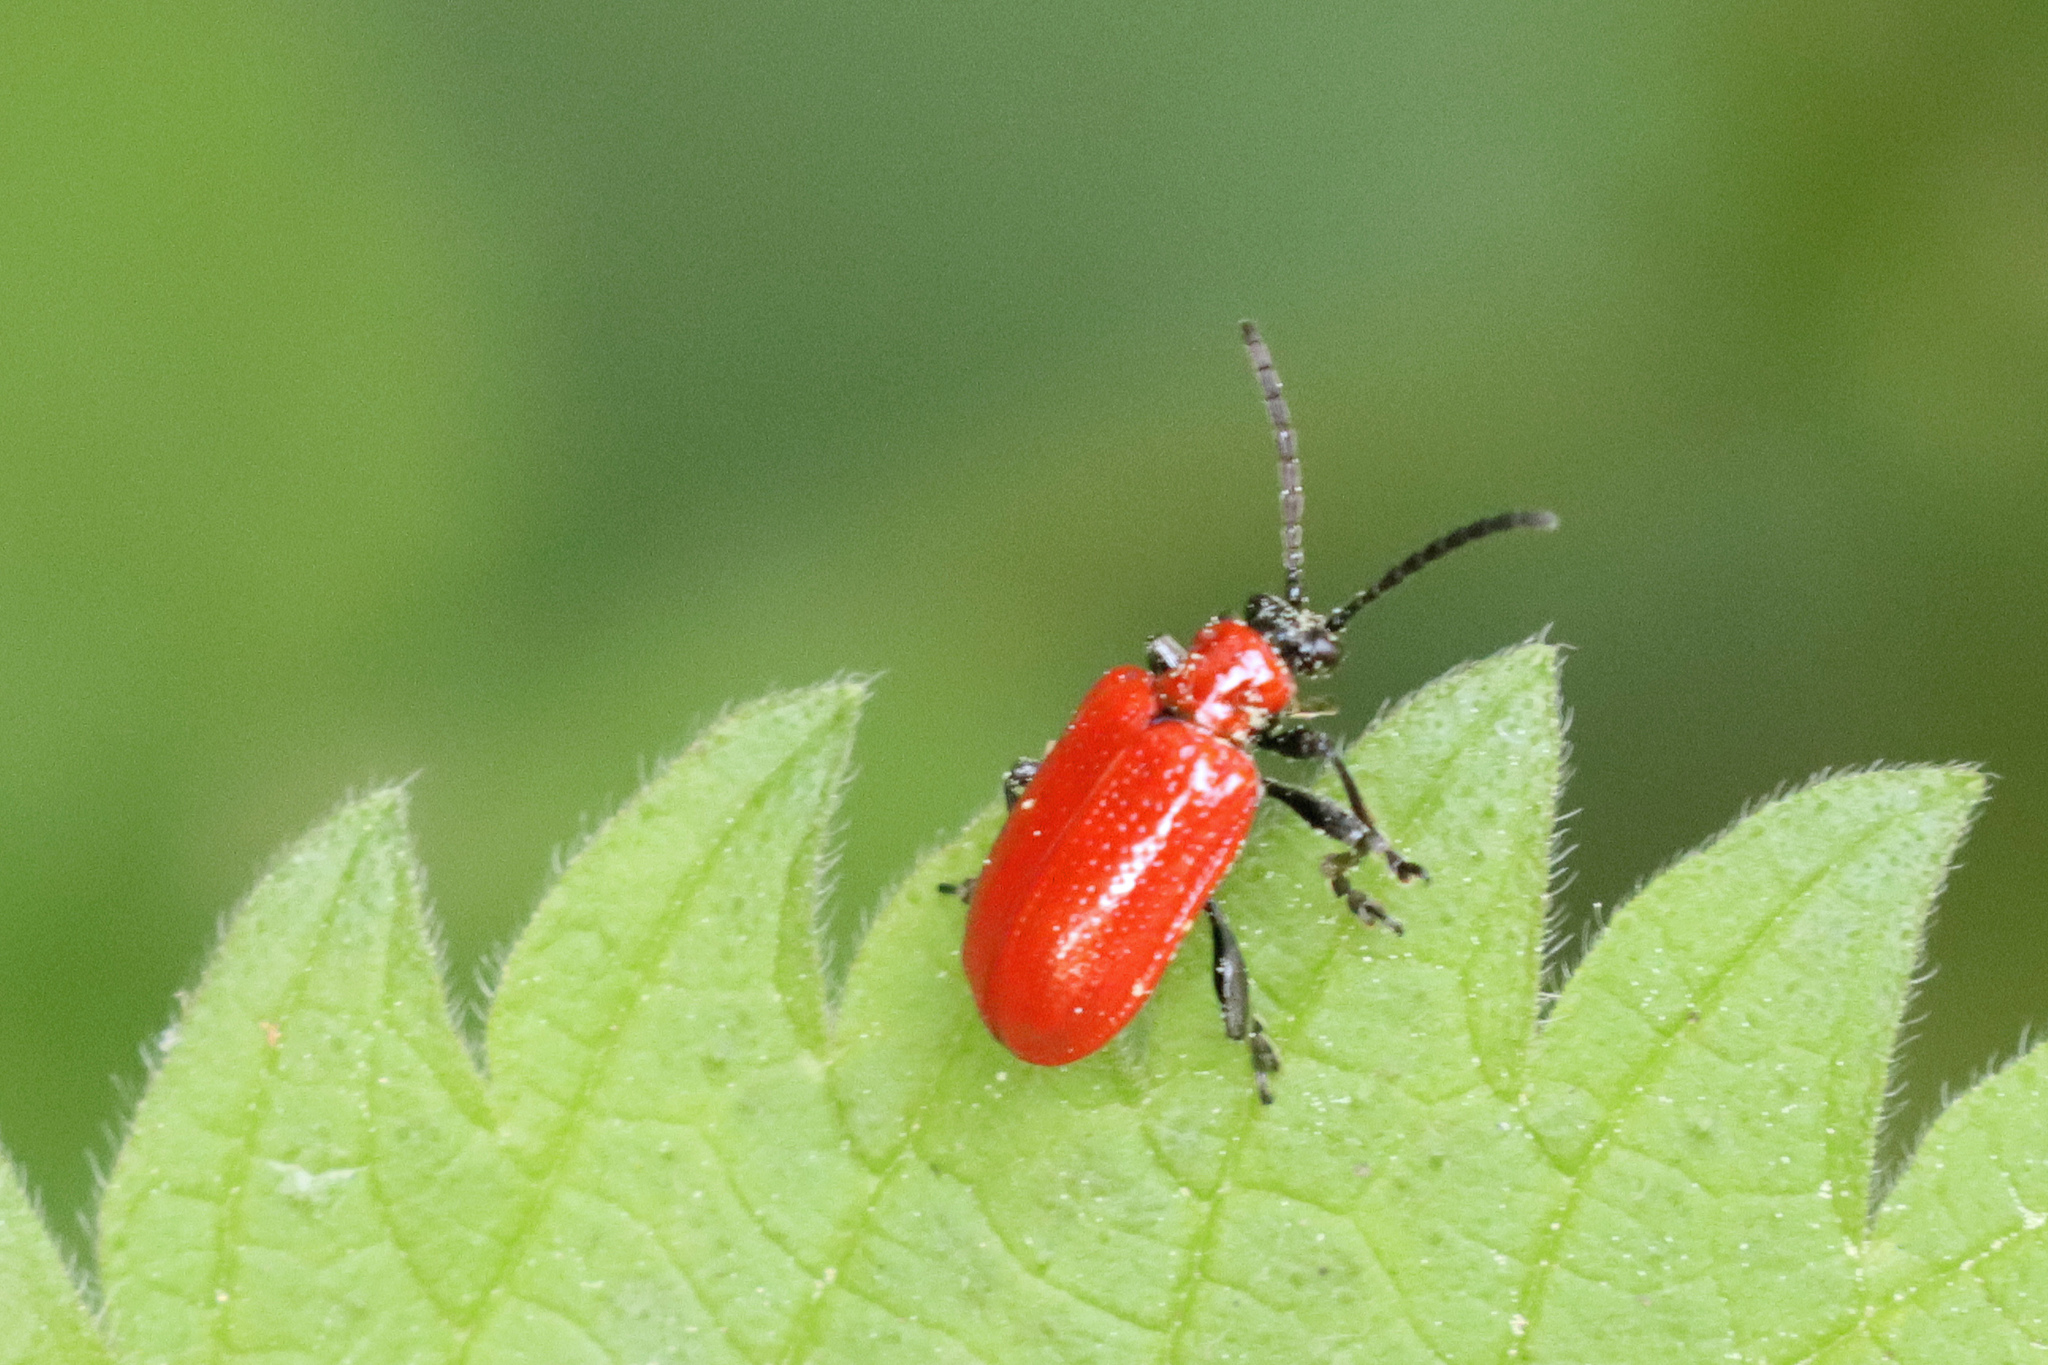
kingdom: Animalia
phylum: Arthropoda
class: Insecta
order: Coleoptera
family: Chrysomelidae
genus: Lilioceris
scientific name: Lilioceris lilii
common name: Lily beetle
